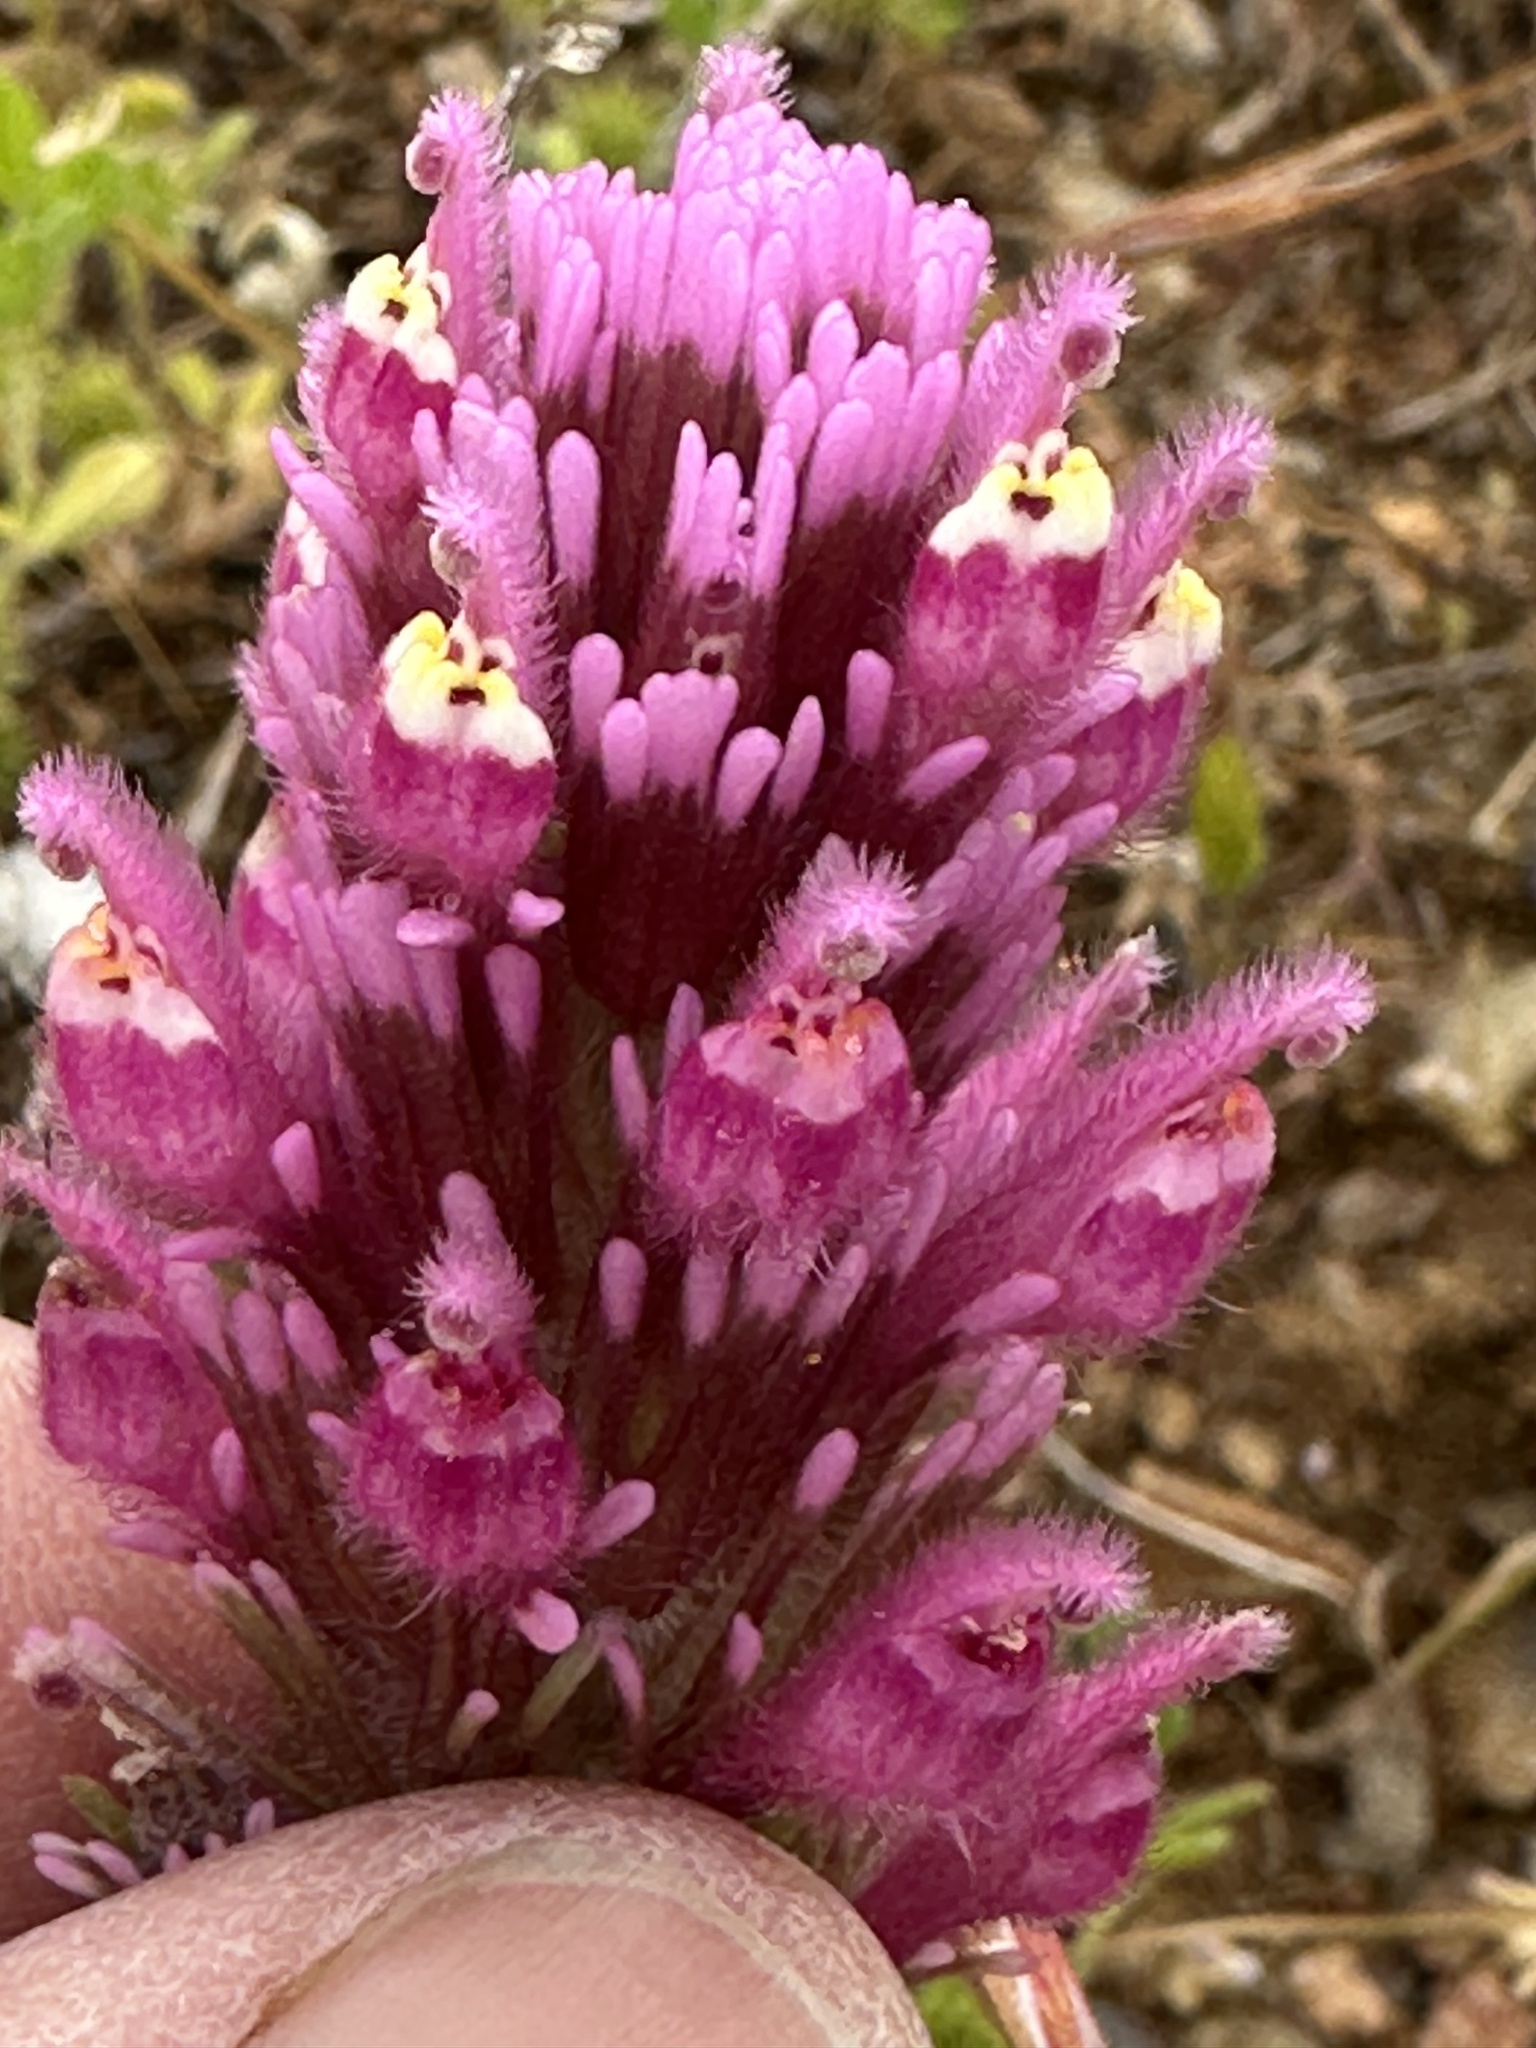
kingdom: Plantae
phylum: Tracheophyta
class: Magnoliopsida
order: Lamiales
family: Orobanchaceae
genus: Castilleja
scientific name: Castilleja exserta
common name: Purple owl-clover
